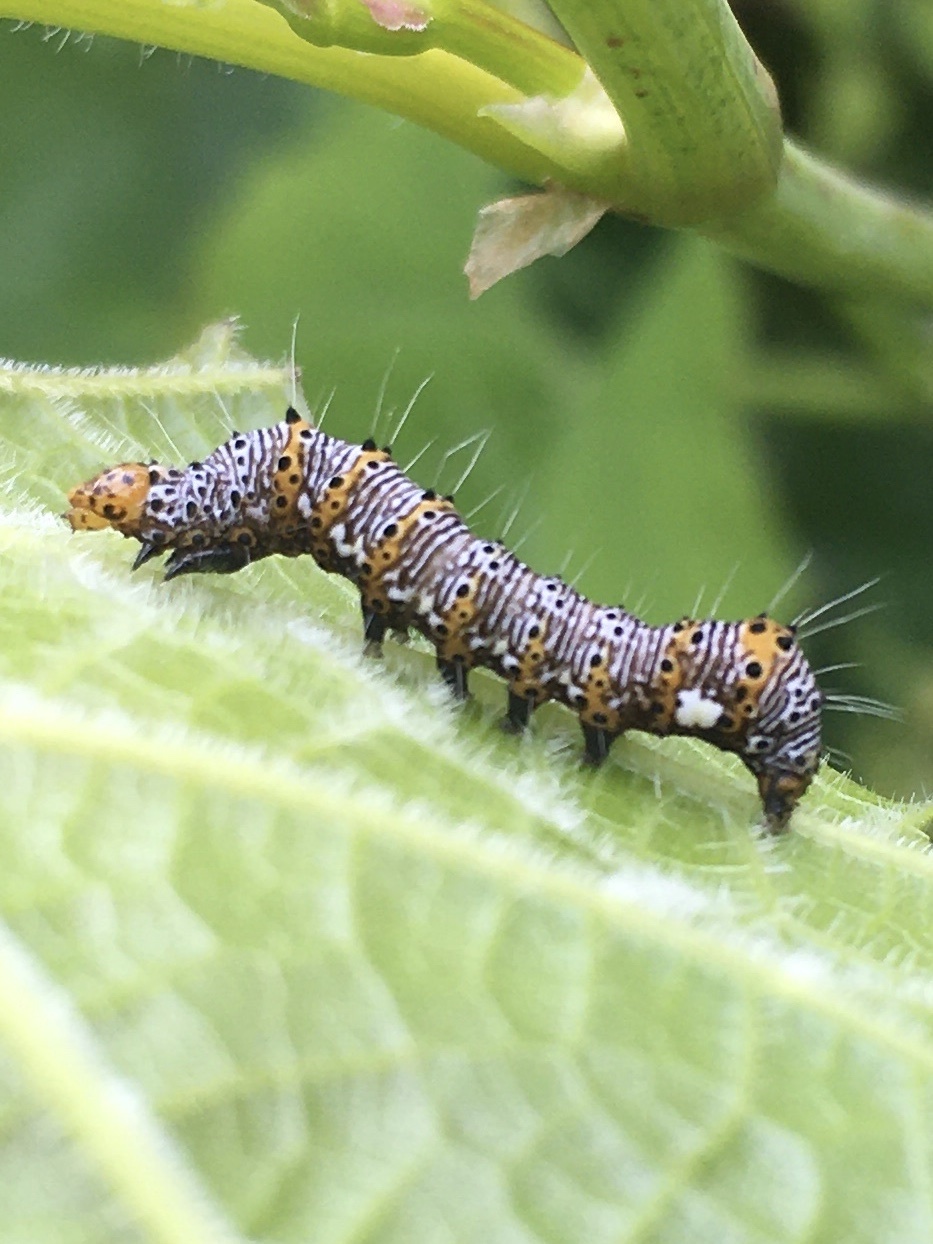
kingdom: Animalia
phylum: Arthropoda
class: Insecta
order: Lepidoptera
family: Noctuidae
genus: Alypia
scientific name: Alypia octomaculata
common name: Eight-spotted forester
